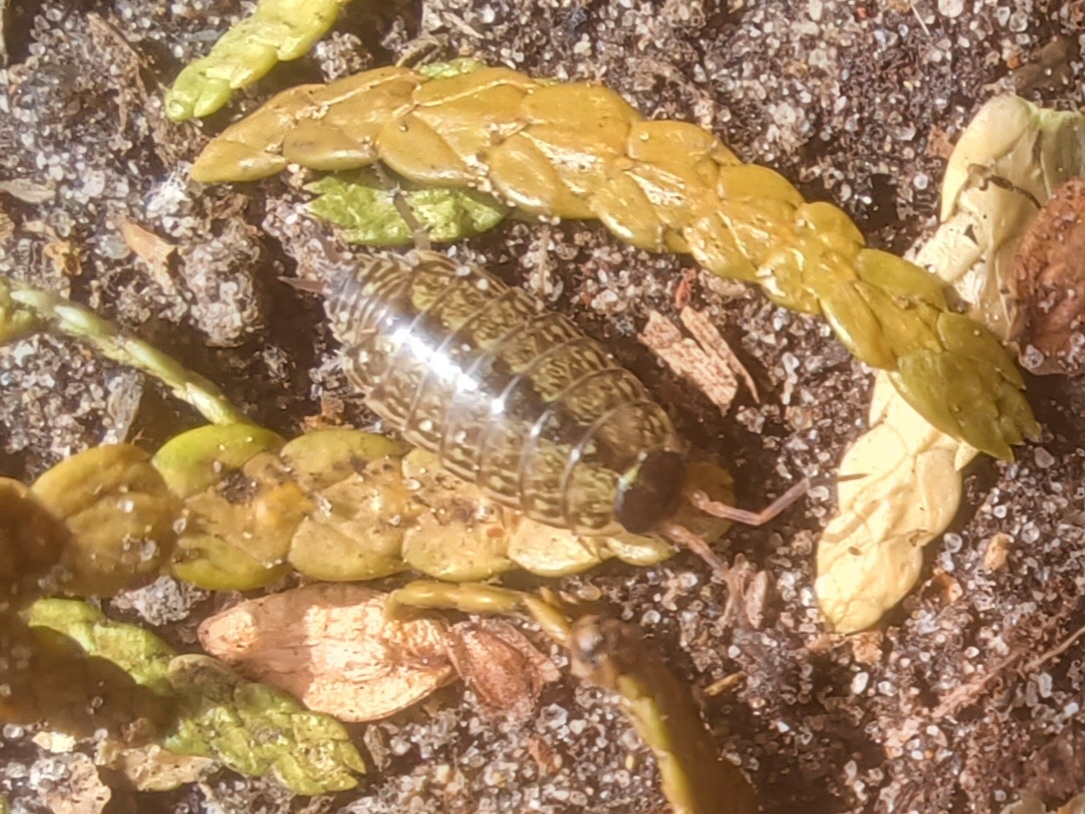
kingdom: Animalia
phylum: Arthropoda
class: Malacostraca
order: Isopoda
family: Philosciidae
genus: Philoscia
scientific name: Philoscia muscorum
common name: Common striped woodlouse
